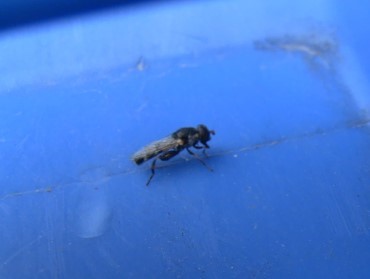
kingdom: Animalia
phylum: Arthropoda
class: Insecta
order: Diptera
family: Syrphidae
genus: Syritta
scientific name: Syritta pipiens
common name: Hover fly
